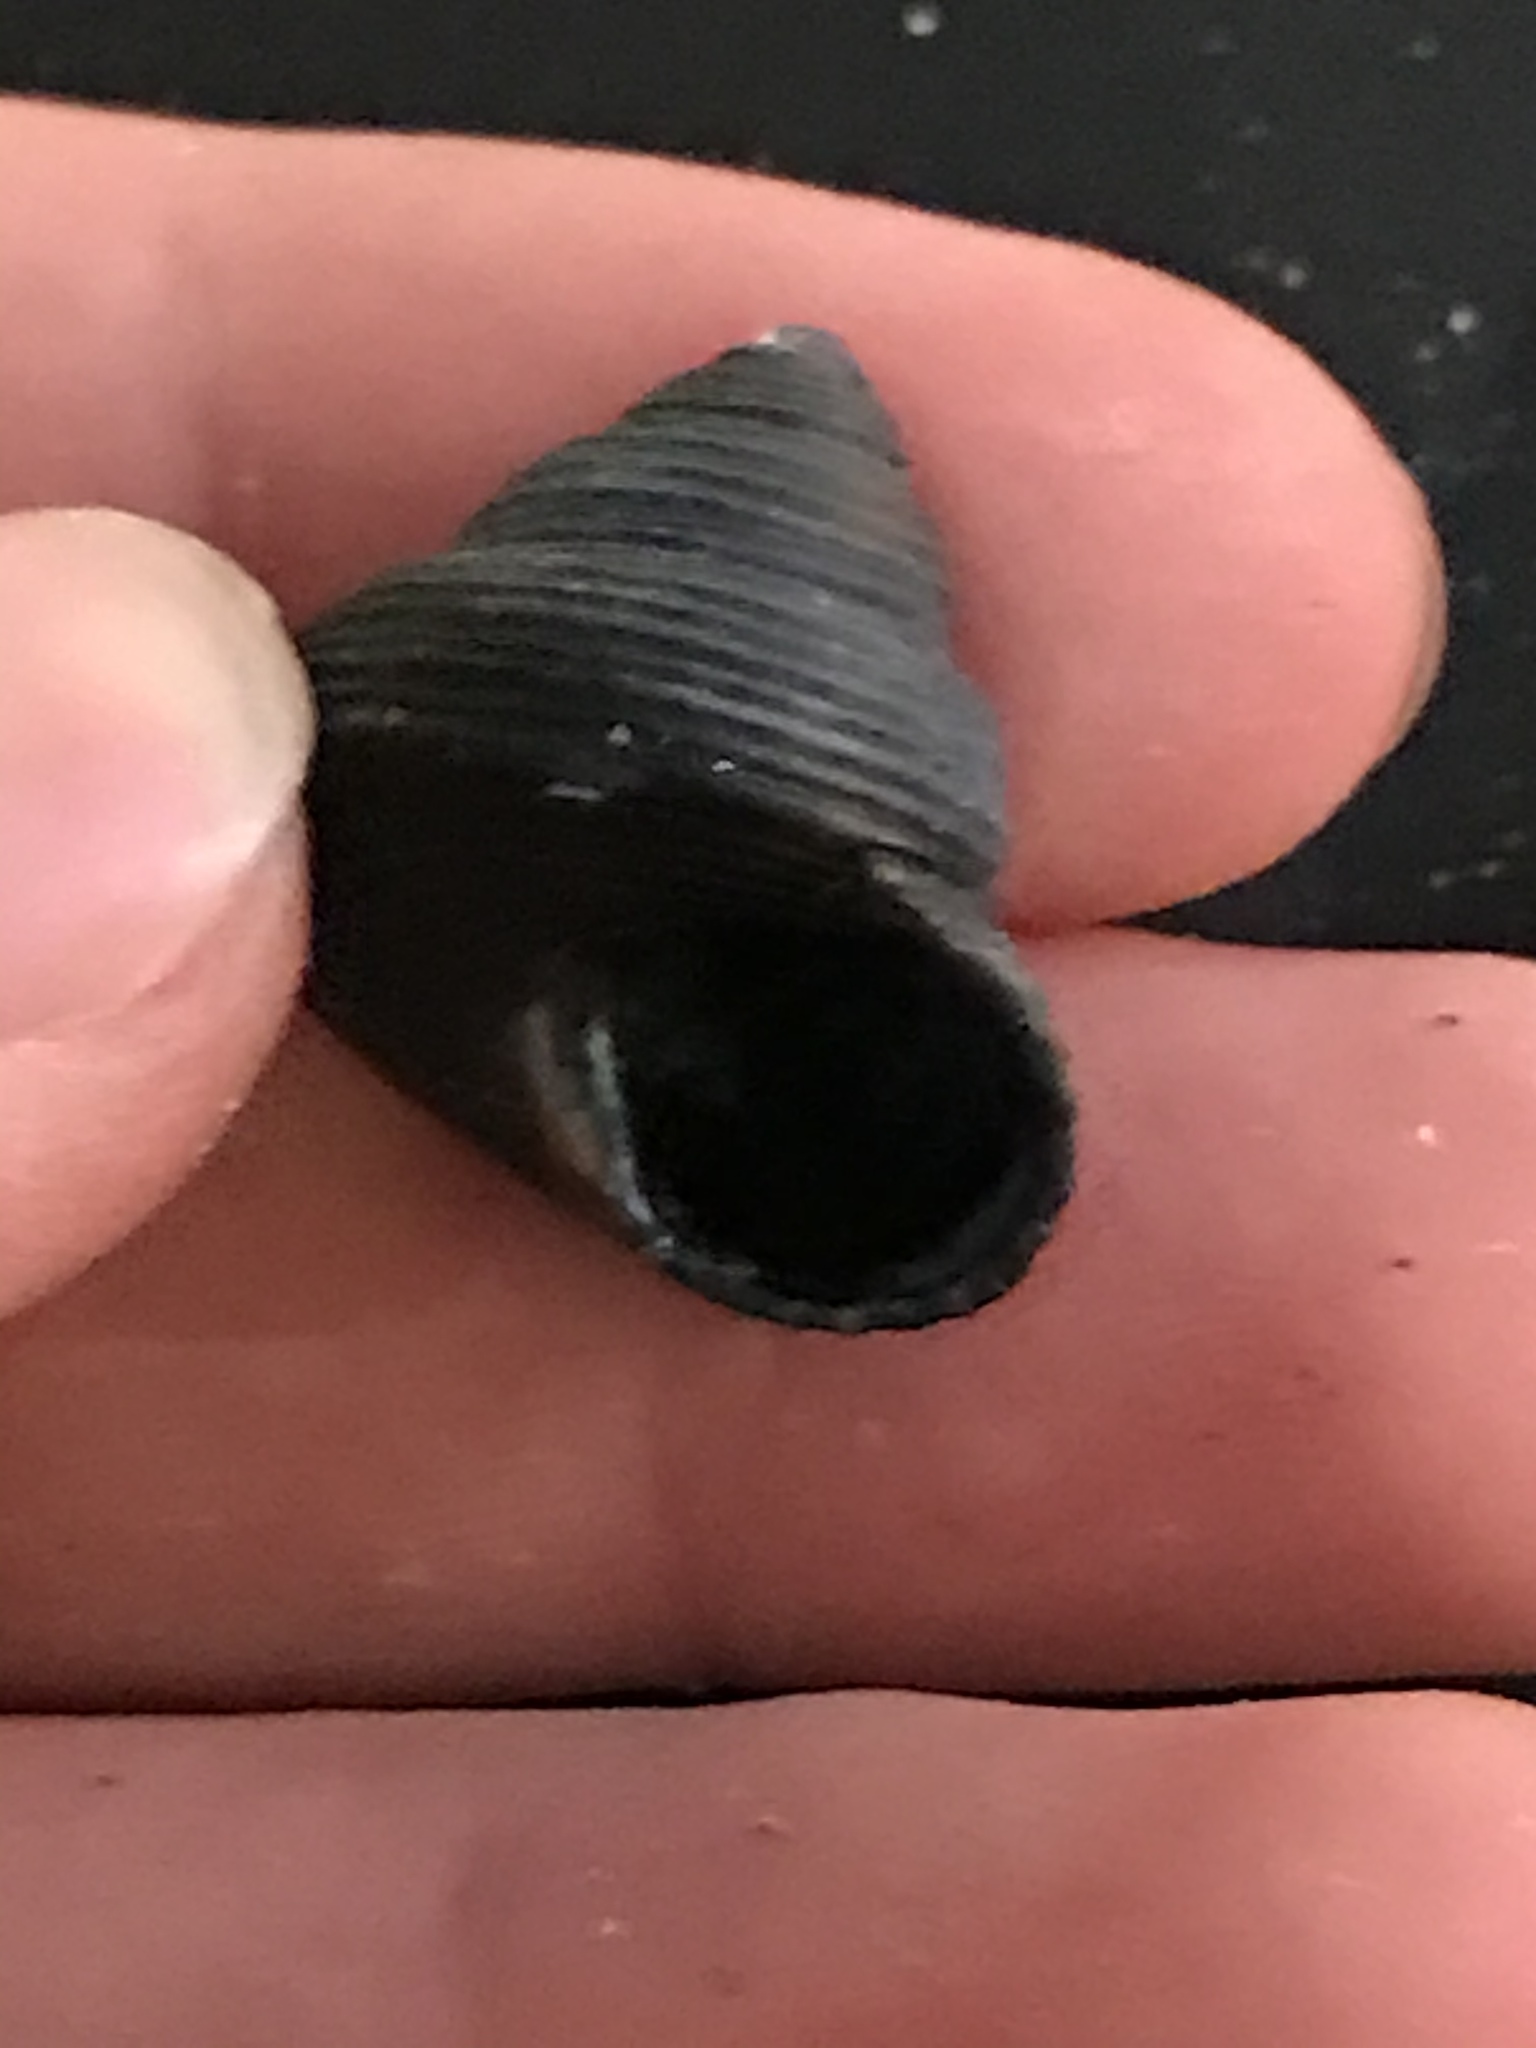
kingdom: Animalia
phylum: Mollusca
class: Gastropoda
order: Trochida
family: Calliostomatidae
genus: Calliostoma
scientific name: Calliostoma ligatum
